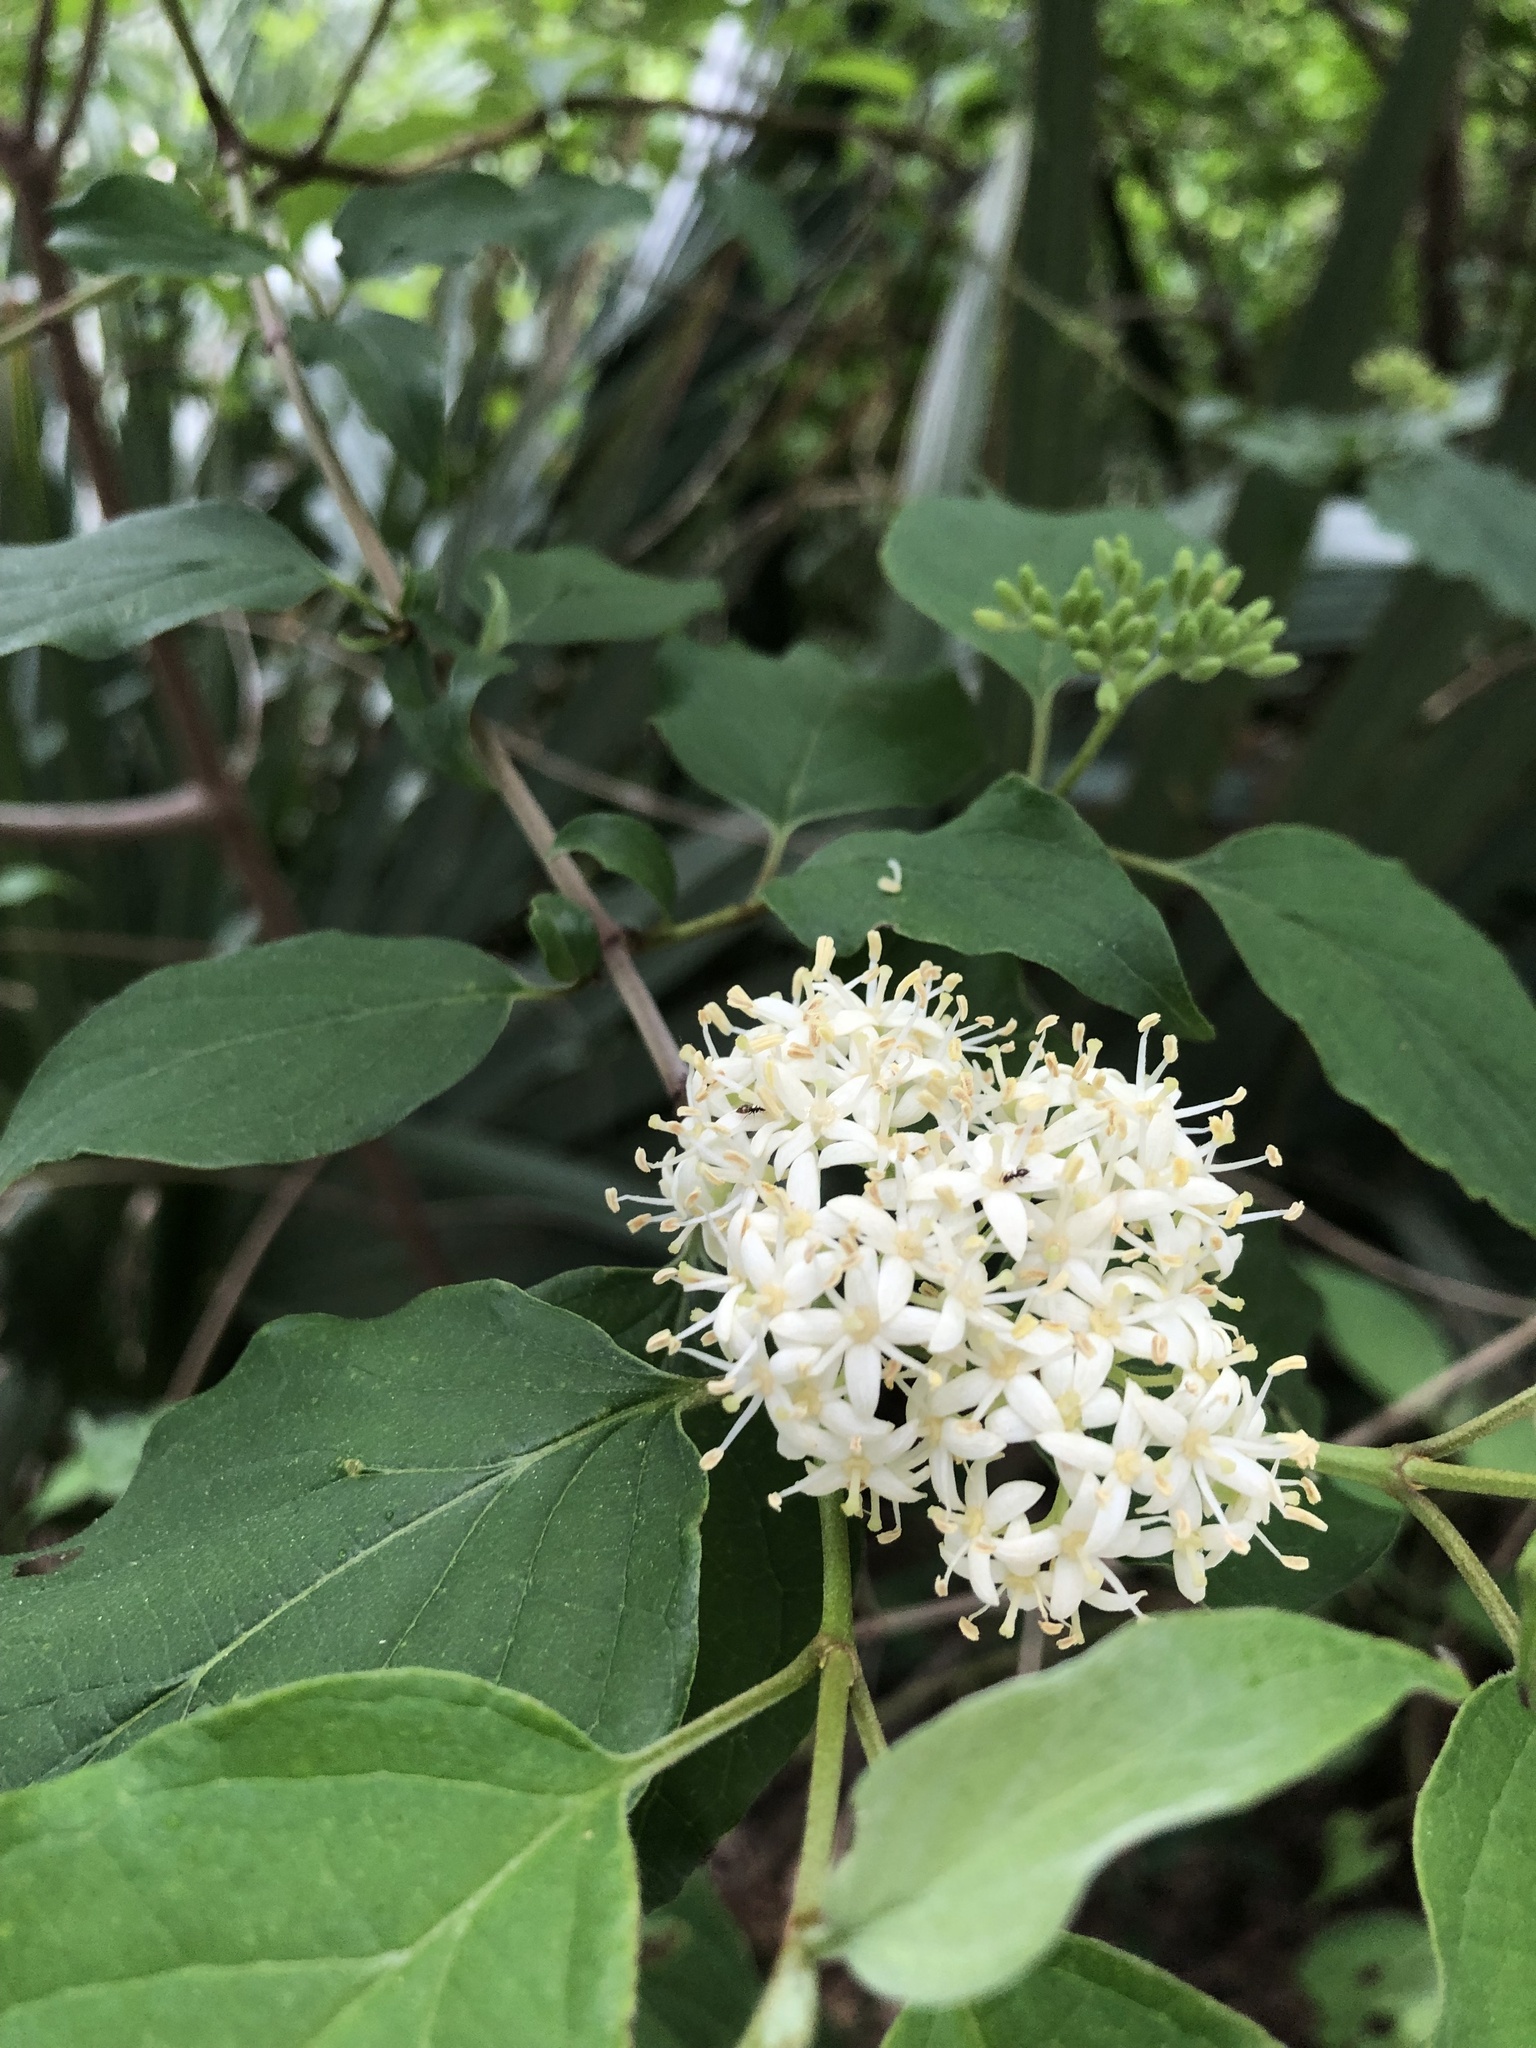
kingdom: Plantae
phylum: Tracheophyta
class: Magnoliopsida
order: Cornales
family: Cornaceae
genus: Cornus
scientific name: Cornus drummondii
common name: Rough-leaf dogwood
